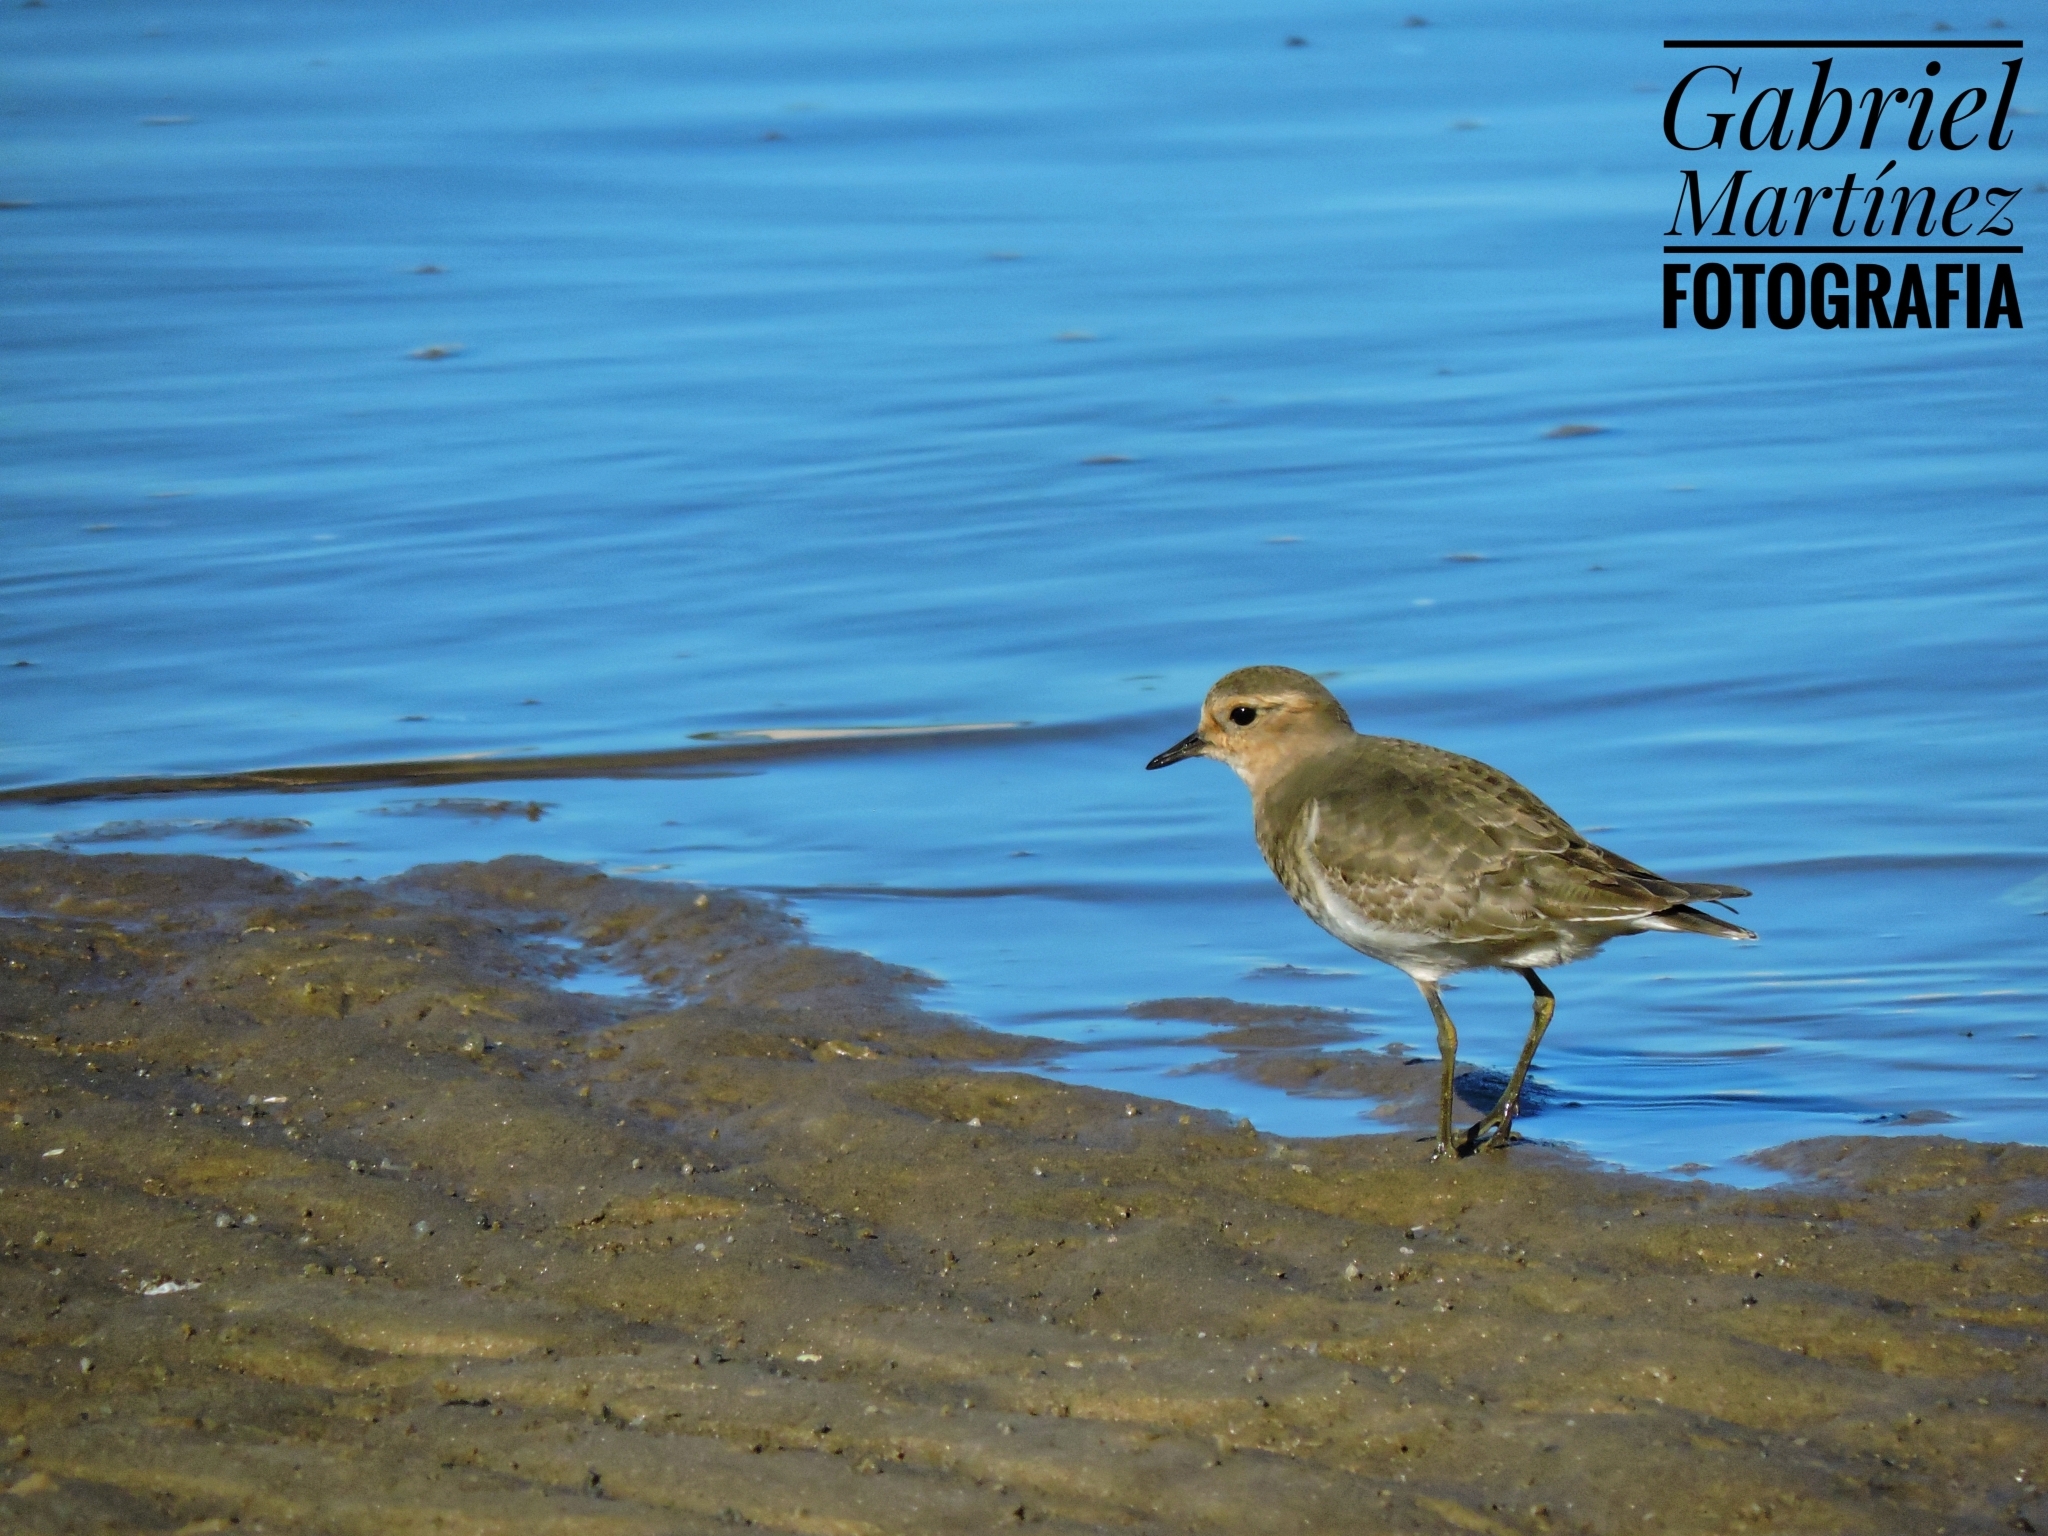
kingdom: Animalia
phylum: Chordata
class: Aves
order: Charadriiformes
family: Charadriidae
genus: Charadrius
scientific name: Charadrius modestus
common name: Rufous-chested plover
